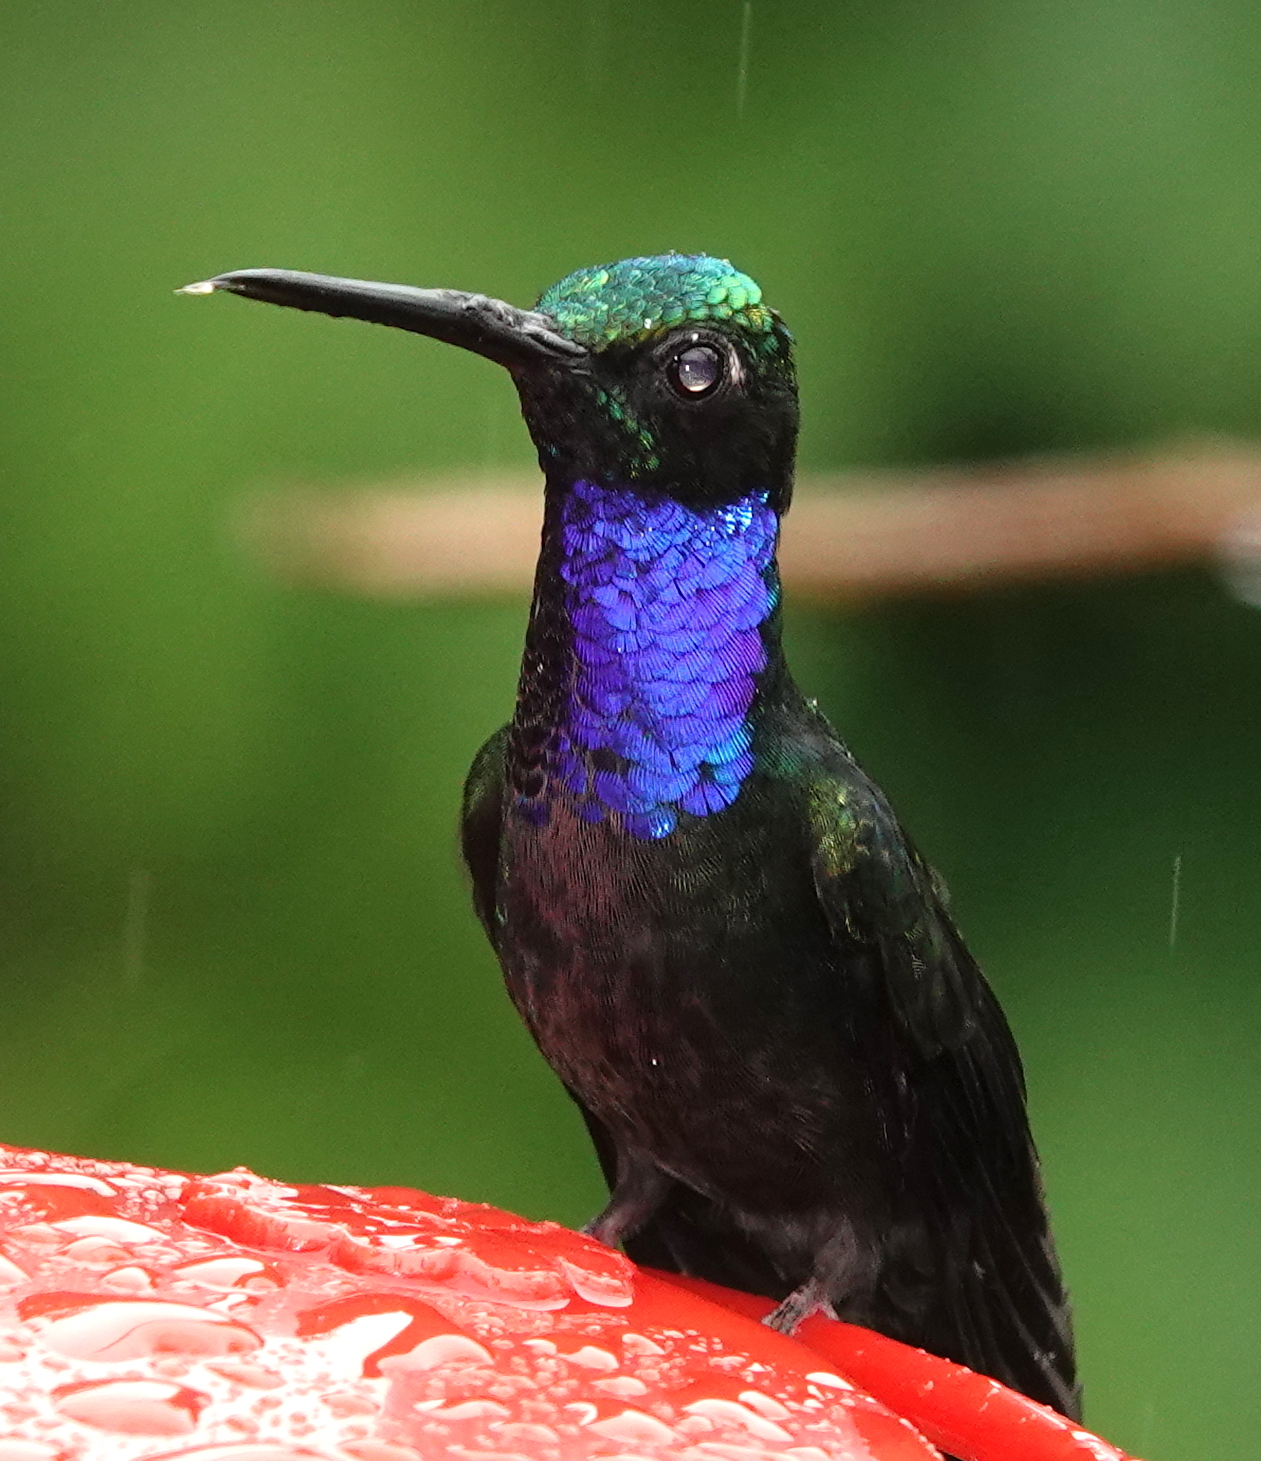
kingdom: Animalia
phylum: Chordata
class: Aves
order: Apodiformes
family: Trochilidae
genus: Campylopterus
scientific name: Campylopterus villaviscensio
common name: Napo sabrewing
